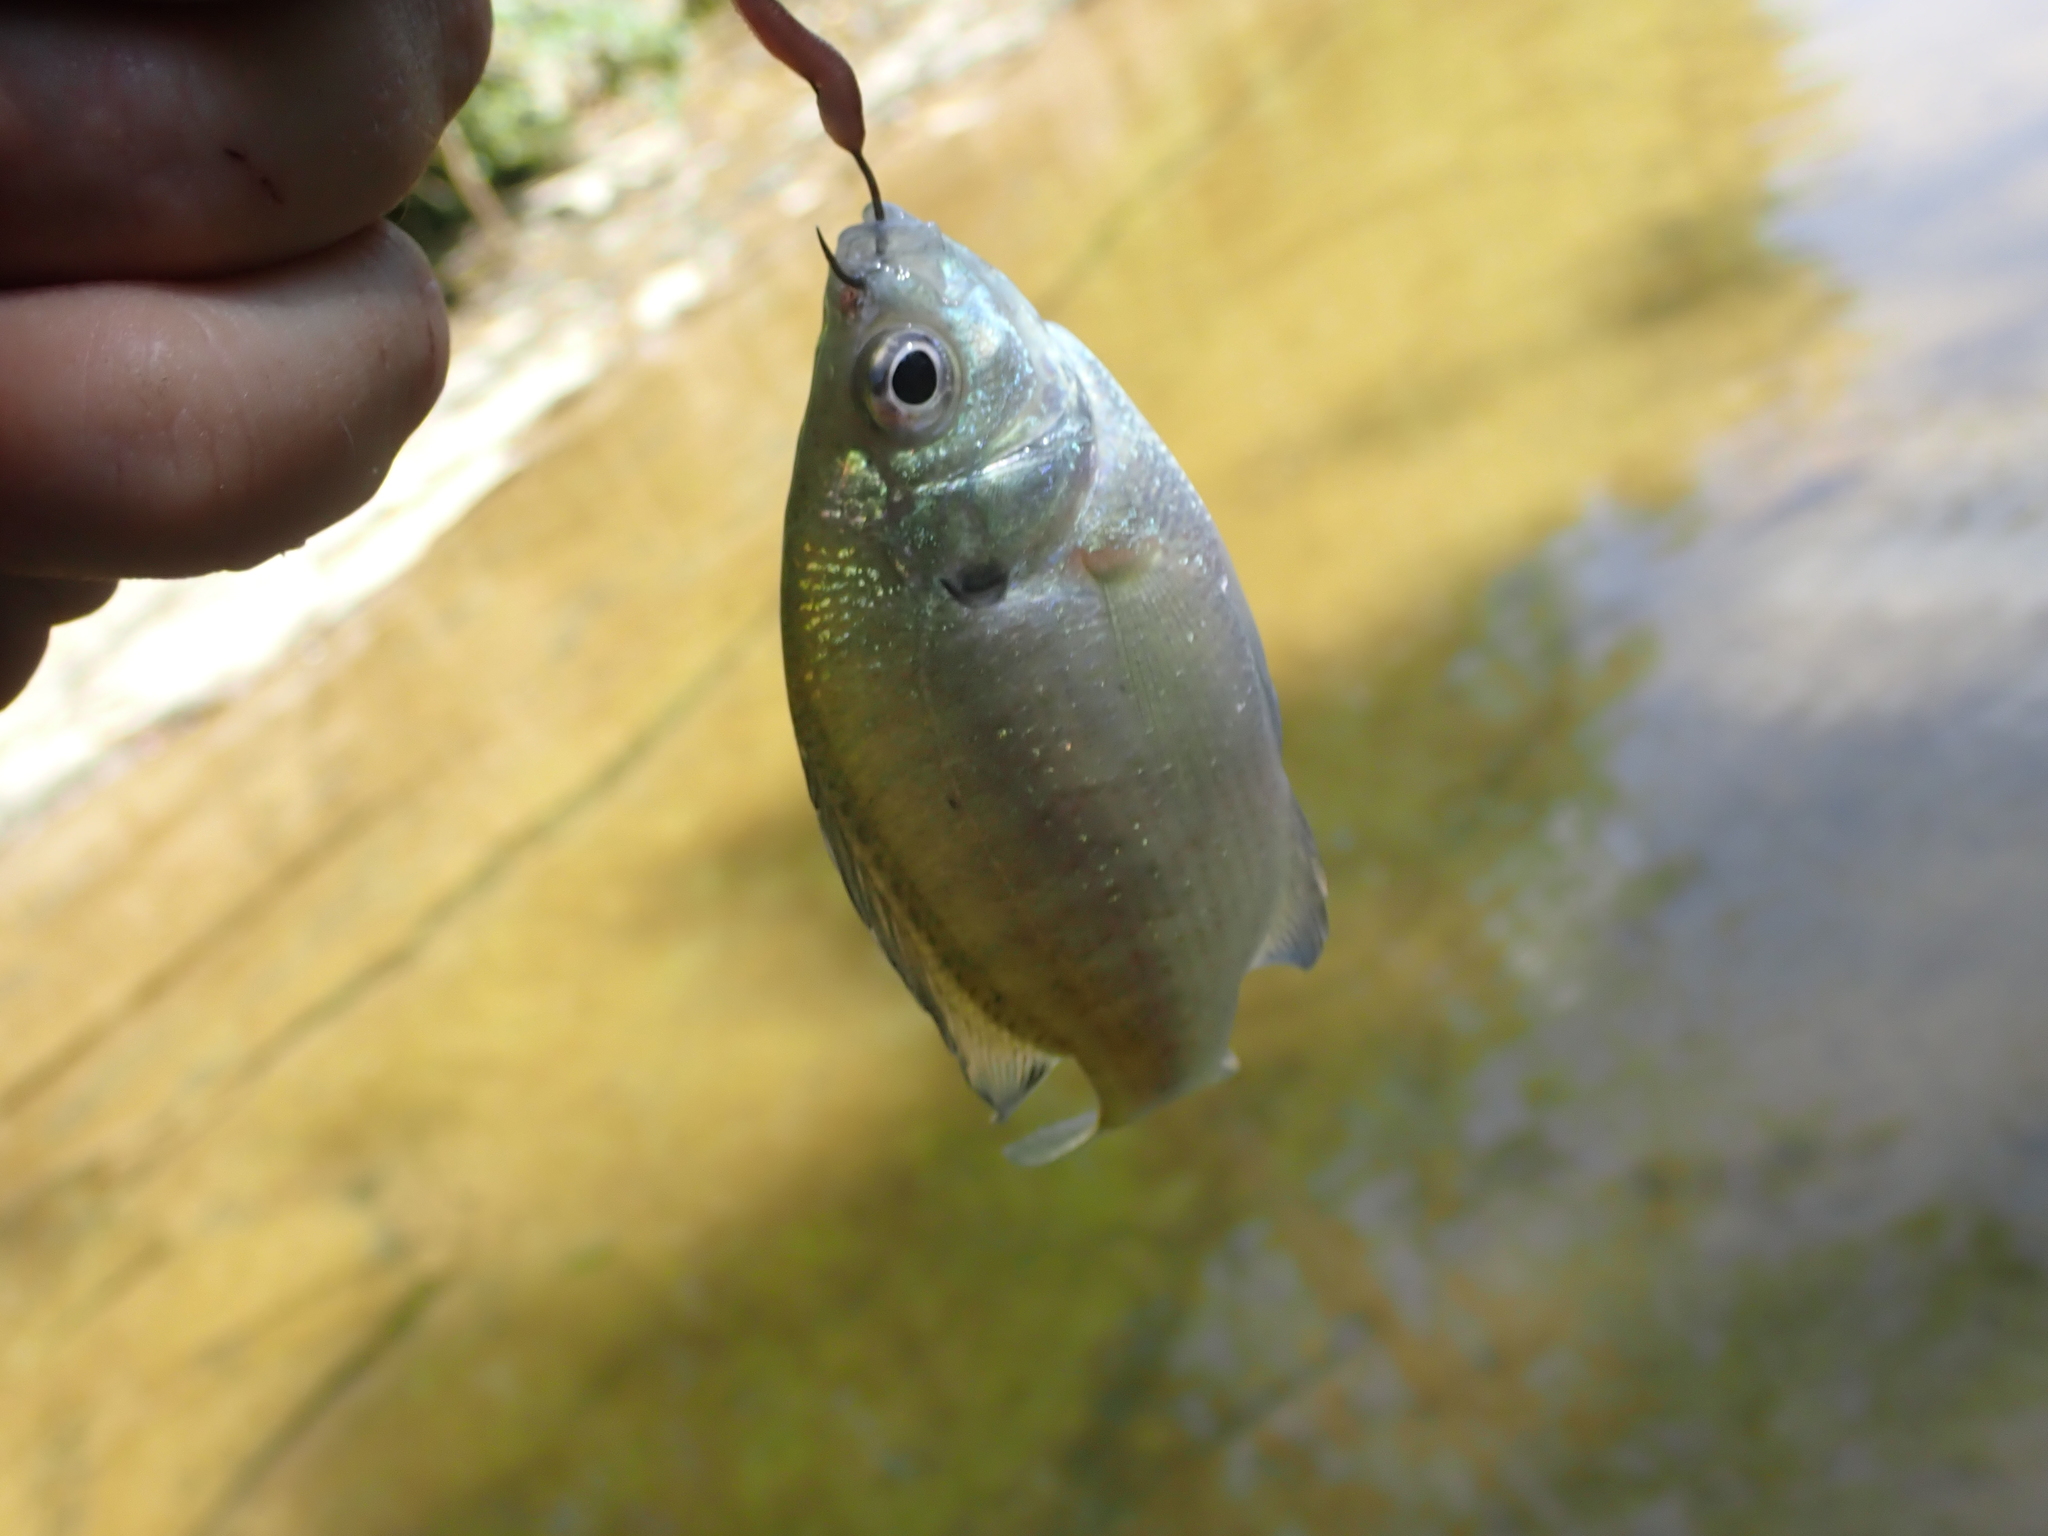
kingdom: Animalia
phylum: Chordata
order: Perciformes
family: Centrarchidae
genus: Lepomis
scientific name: Lepomis macrochirus
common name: Bluegill
